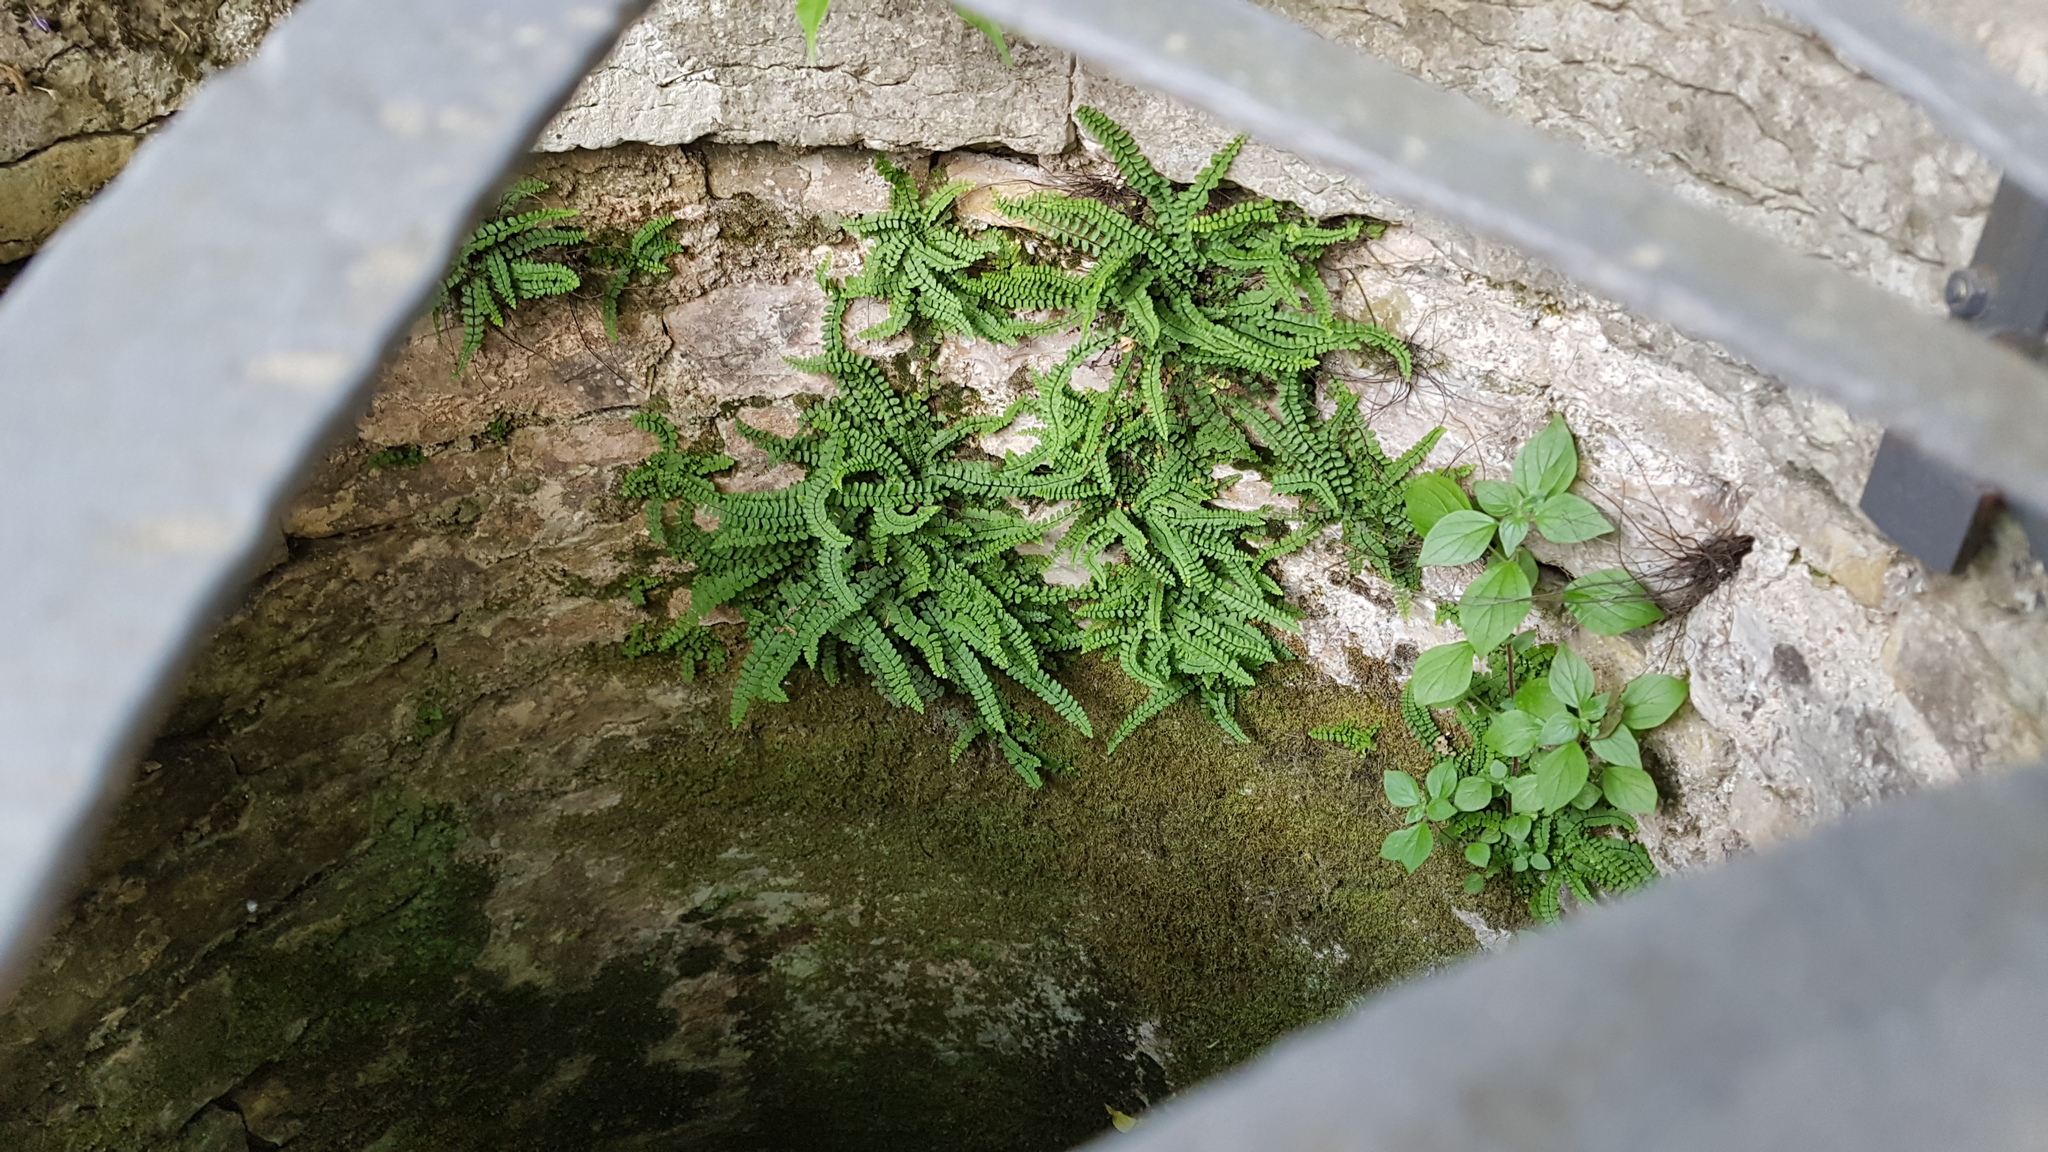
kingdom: Plantae
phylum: Tracheophyta
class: Polypodiopsida
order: Polypodiales
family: Aspleniaceae
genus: Asplenium
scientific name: Asplenium trichomanes
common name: Maidenhair spleenwort
